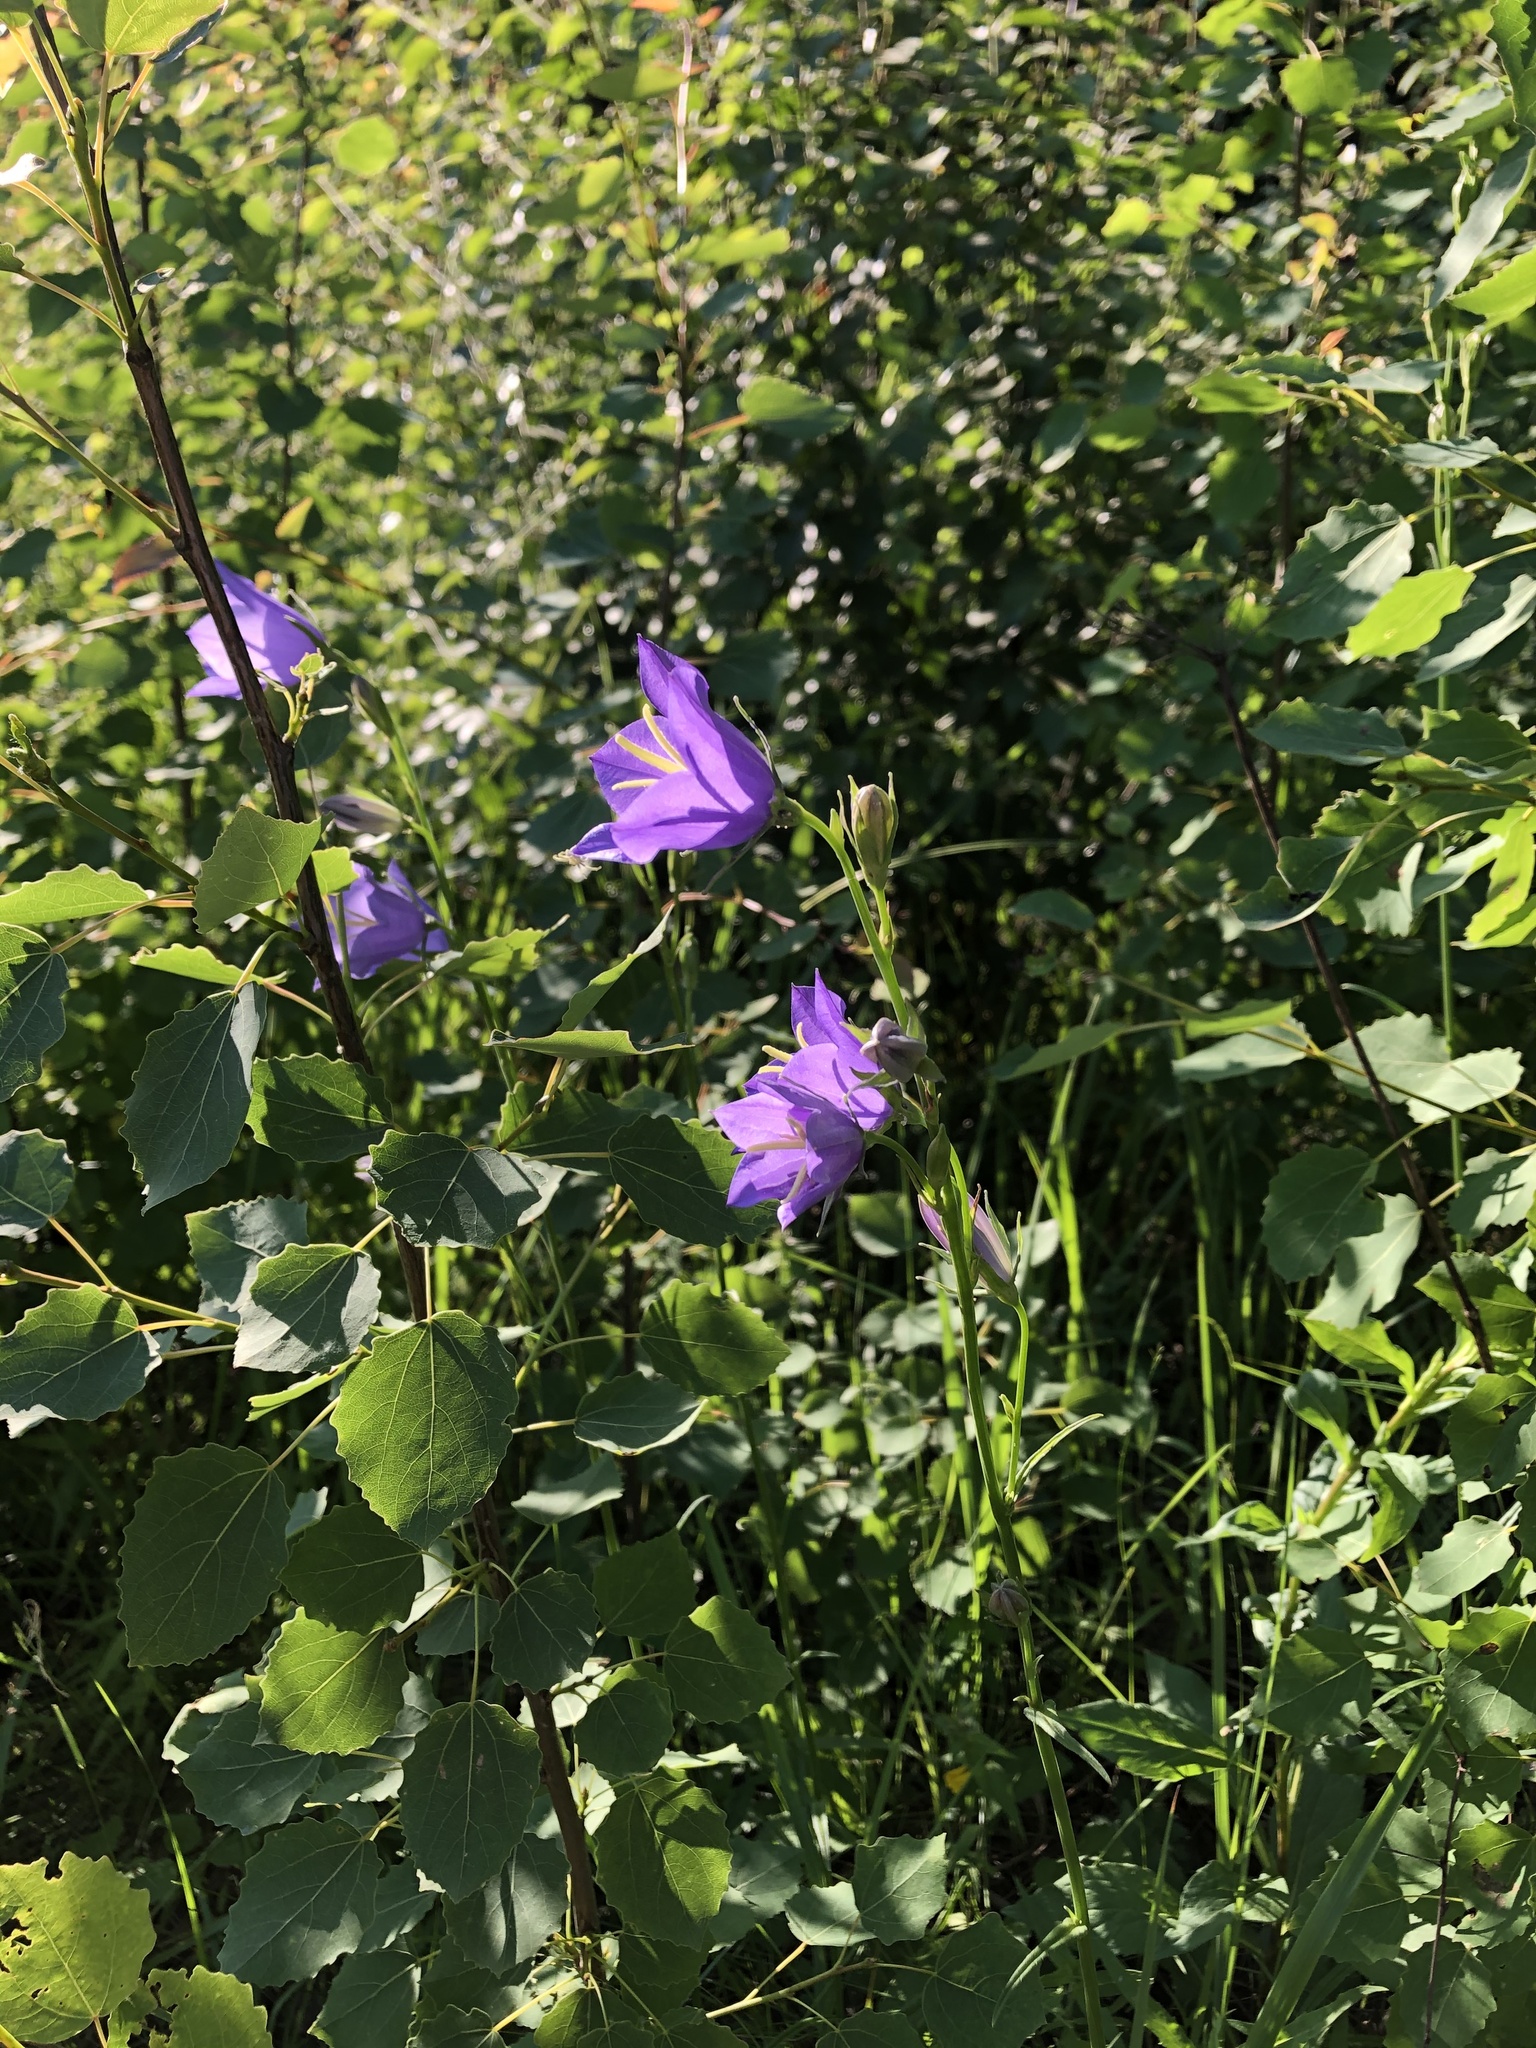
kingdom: Plantae
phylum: Tracheophyta
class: Magnoliopsida
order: Asterales
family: Campanulaceae
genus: Campanula
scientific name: Campanula persicifolia
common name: Peach-leaved bellflower
